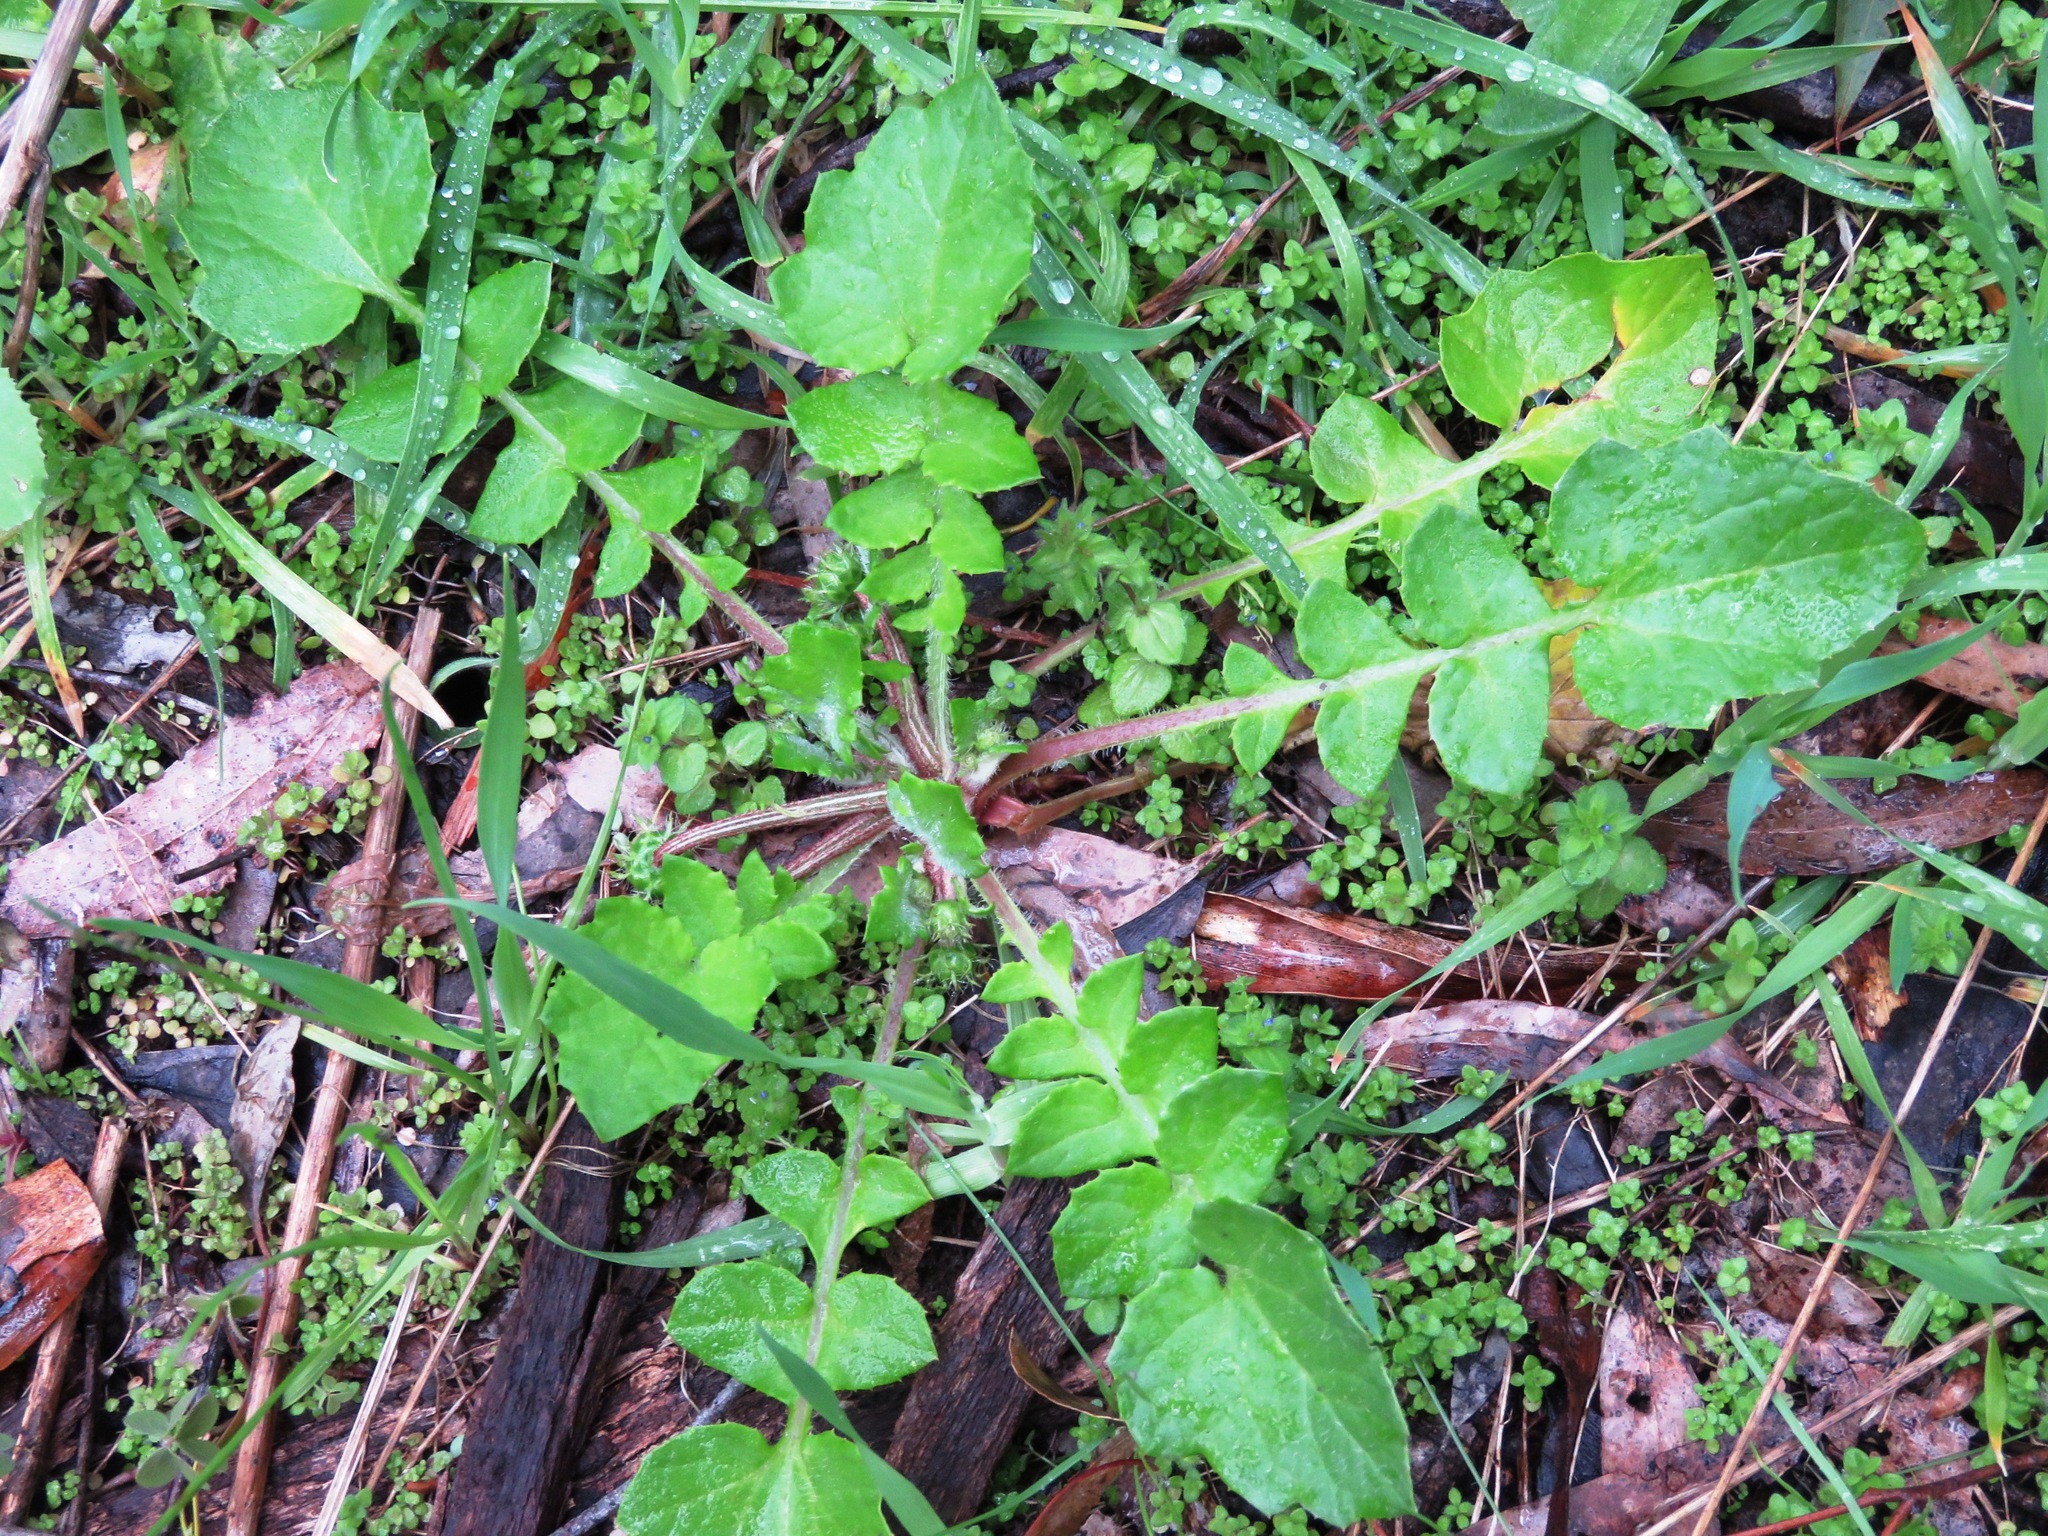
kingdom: Plantae
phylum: Tracheophyta
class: Magnoliopsida
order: Asterales
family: Asteraceae
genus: Arctotheca
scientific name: Arctotheca calendula
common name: Capeweed
